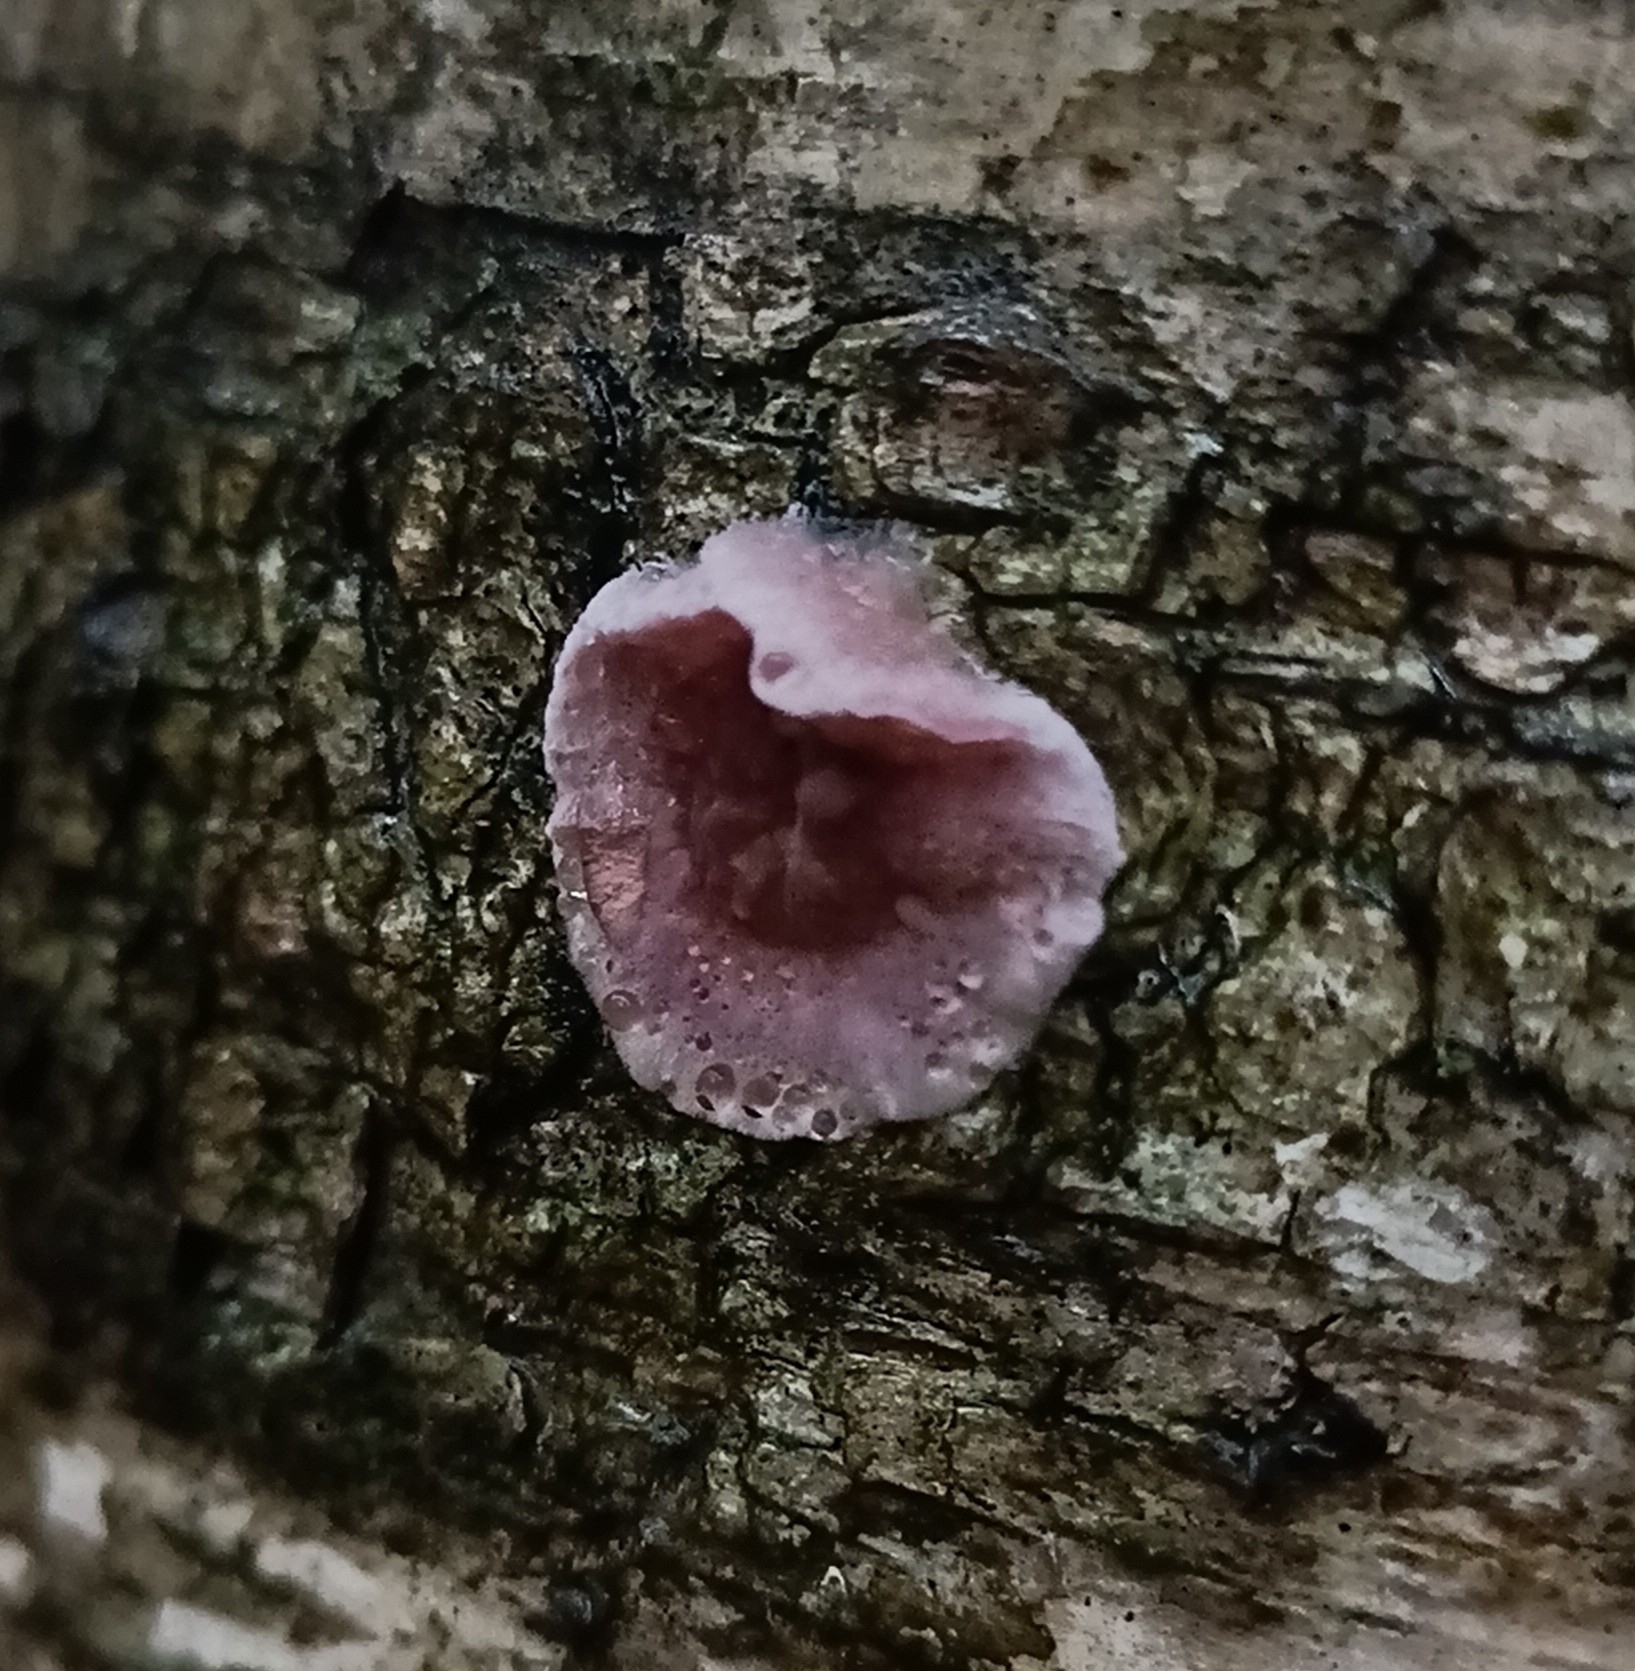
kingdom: Fungi
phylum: Basidiomycota
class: Agaricomycetes
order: Agaricales
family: Cyphellaceae
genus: Chondrostereum
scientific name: Chondrostereum purpureum
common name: Silver leaf disease
